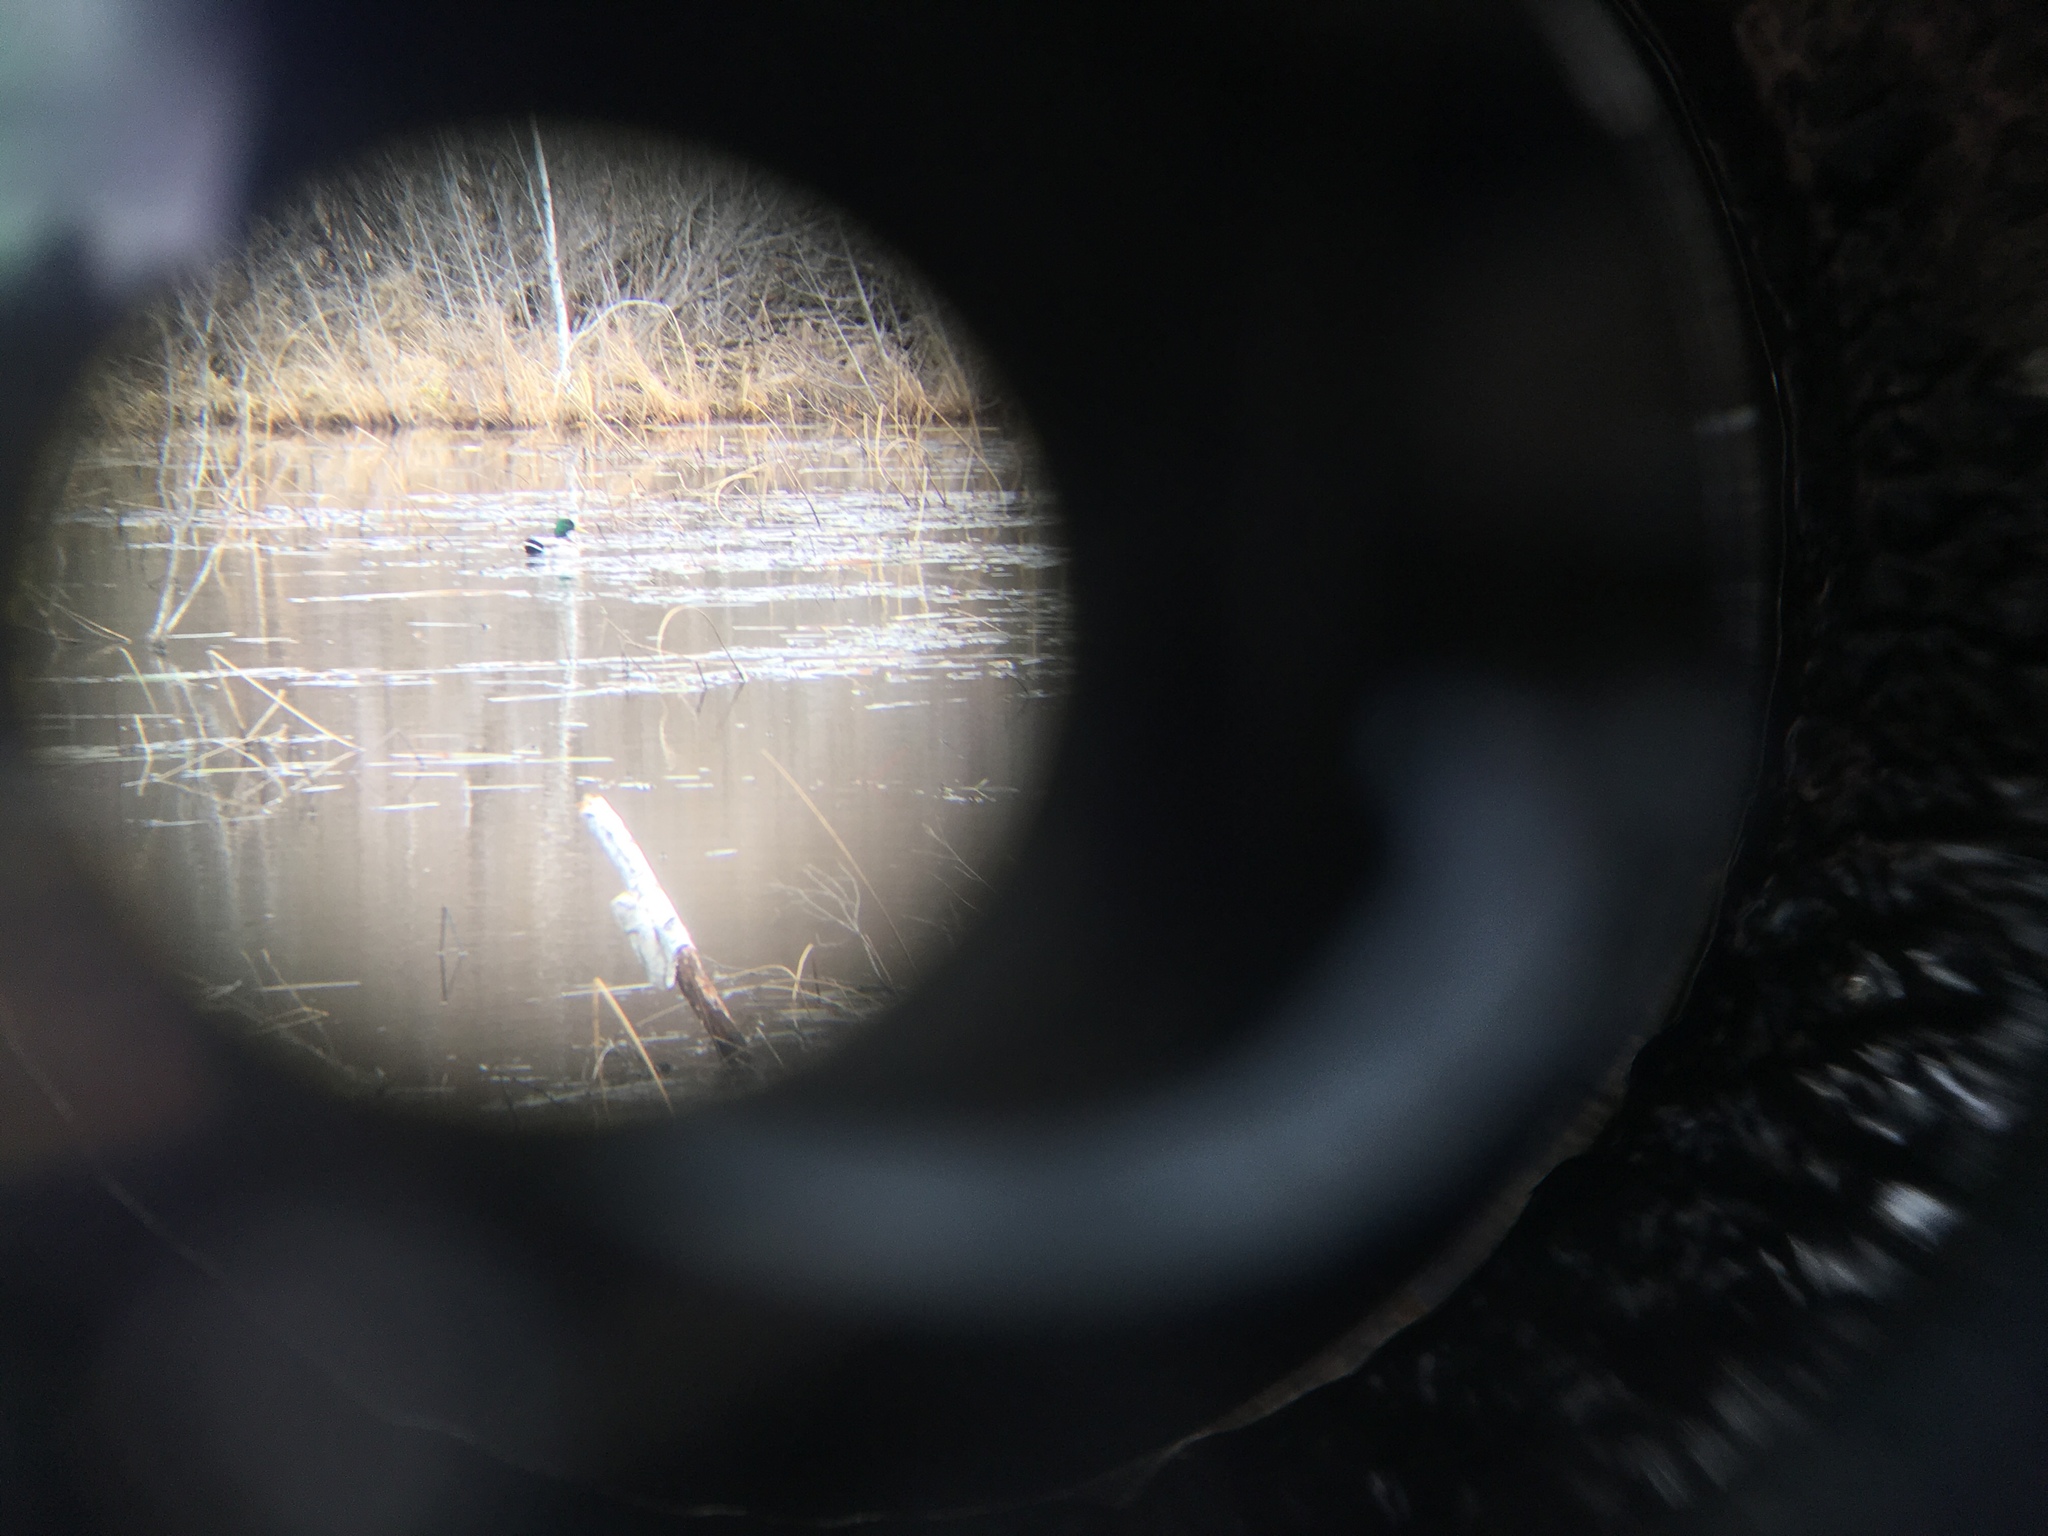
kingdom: Animalia
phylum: Chordata
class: Aves
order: Anseriformes
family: Anatidae
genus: Anas
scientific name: Anas platyrhynchos
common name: Mallard
